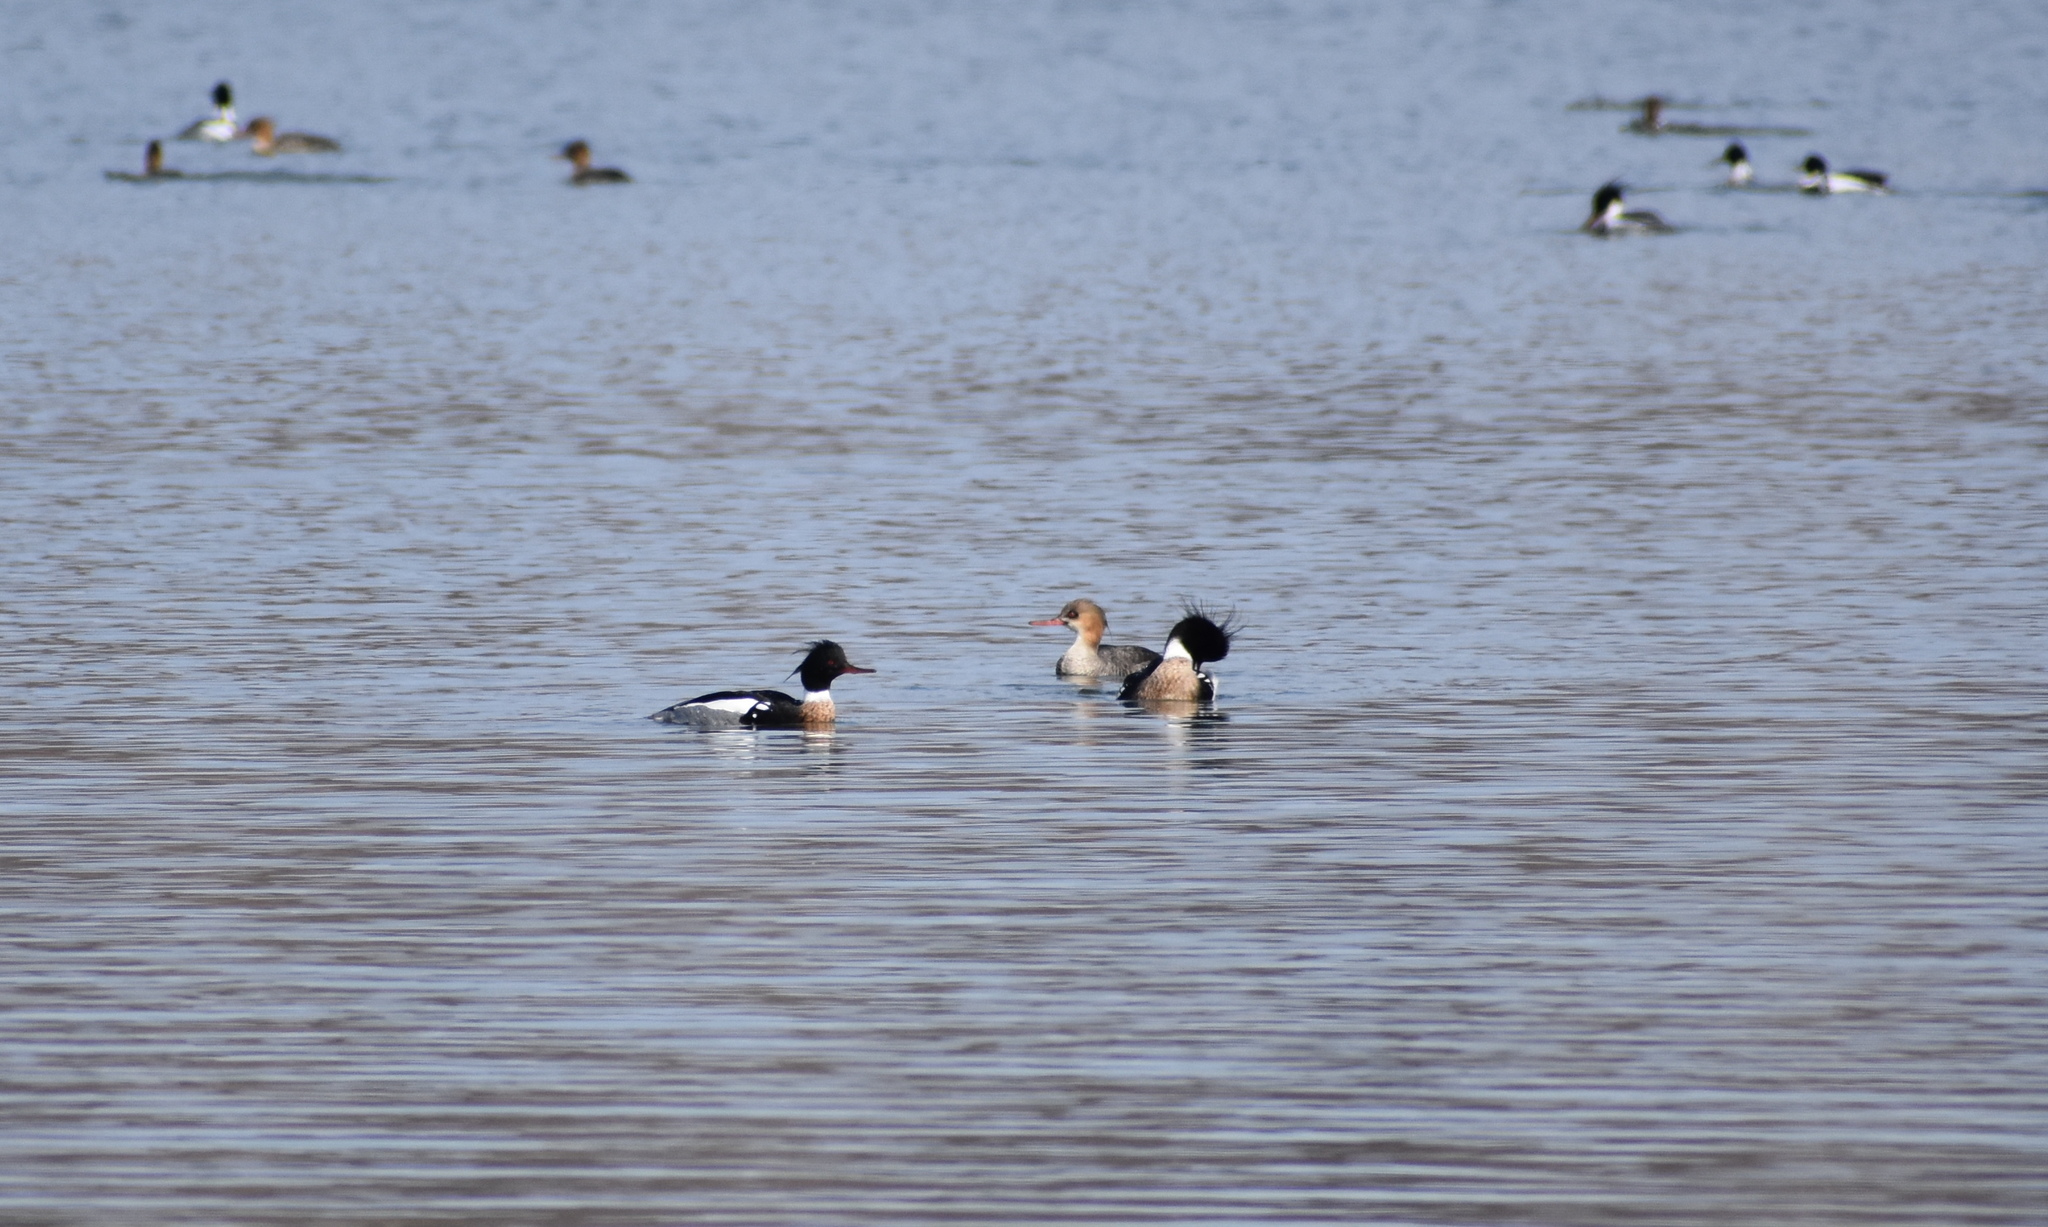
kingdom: Animalia
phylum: Chordata
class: Aves
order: Anseriformes
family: Anatidae
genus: Mergus
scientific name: Mergus serrator
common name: Red-breasted merganser
